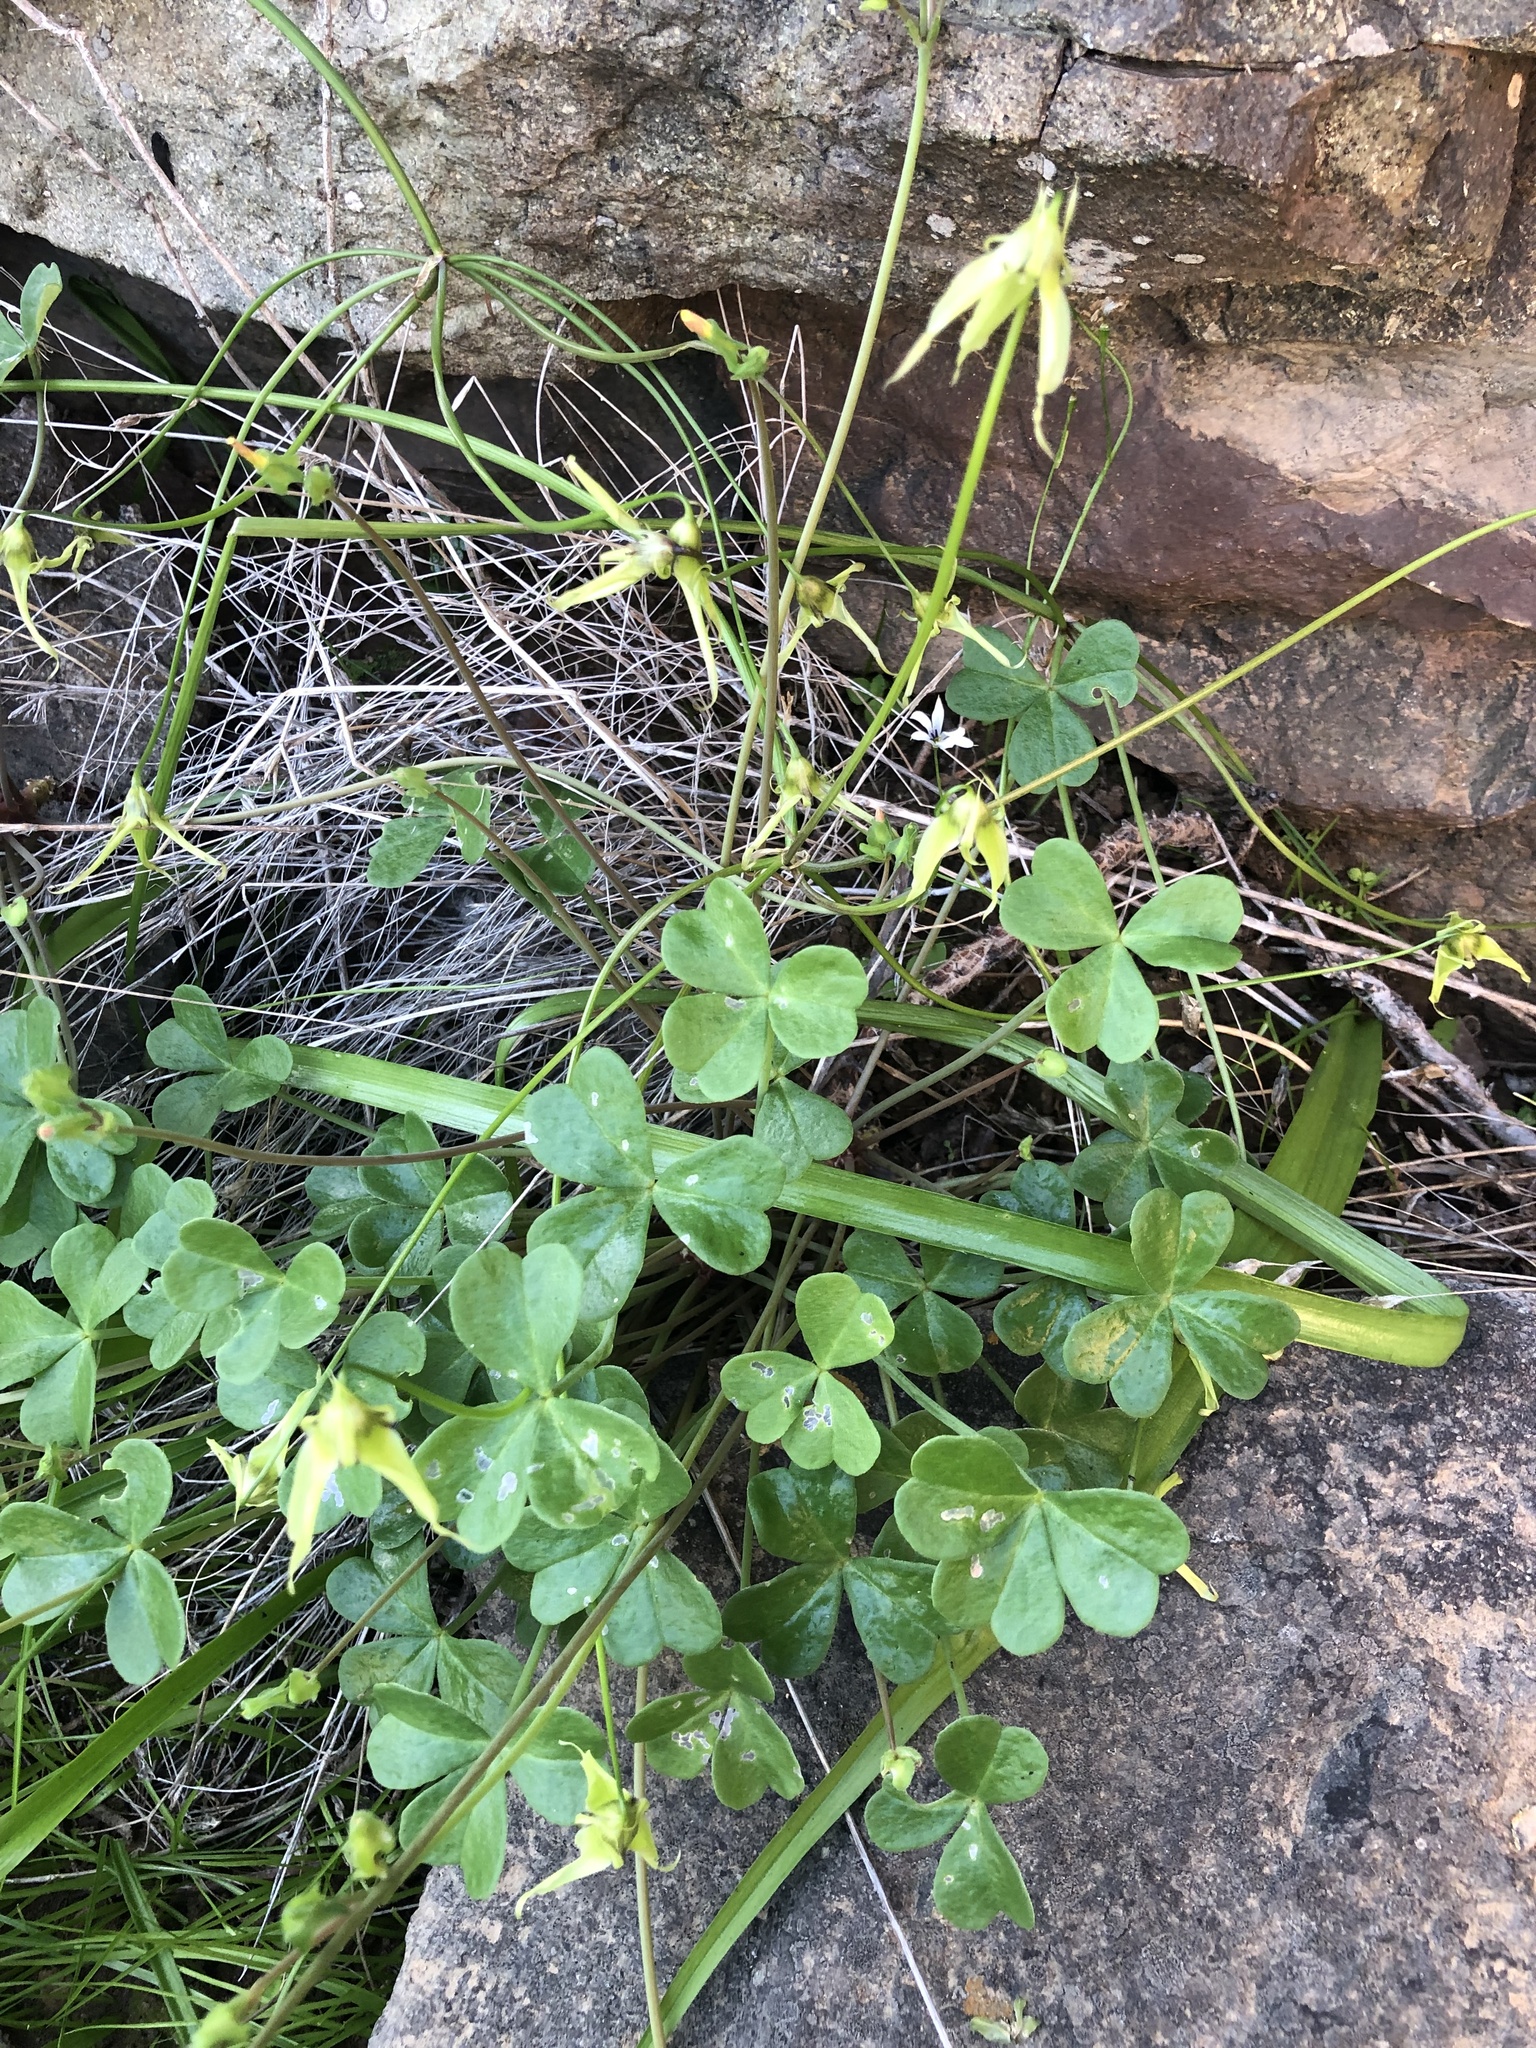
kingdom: Plantae
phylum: Tracheophyta
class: Liliopsida
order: Asparagales
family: Amaryllidaceae
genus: Gilliesia
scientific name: Gilliesia cuspidata
